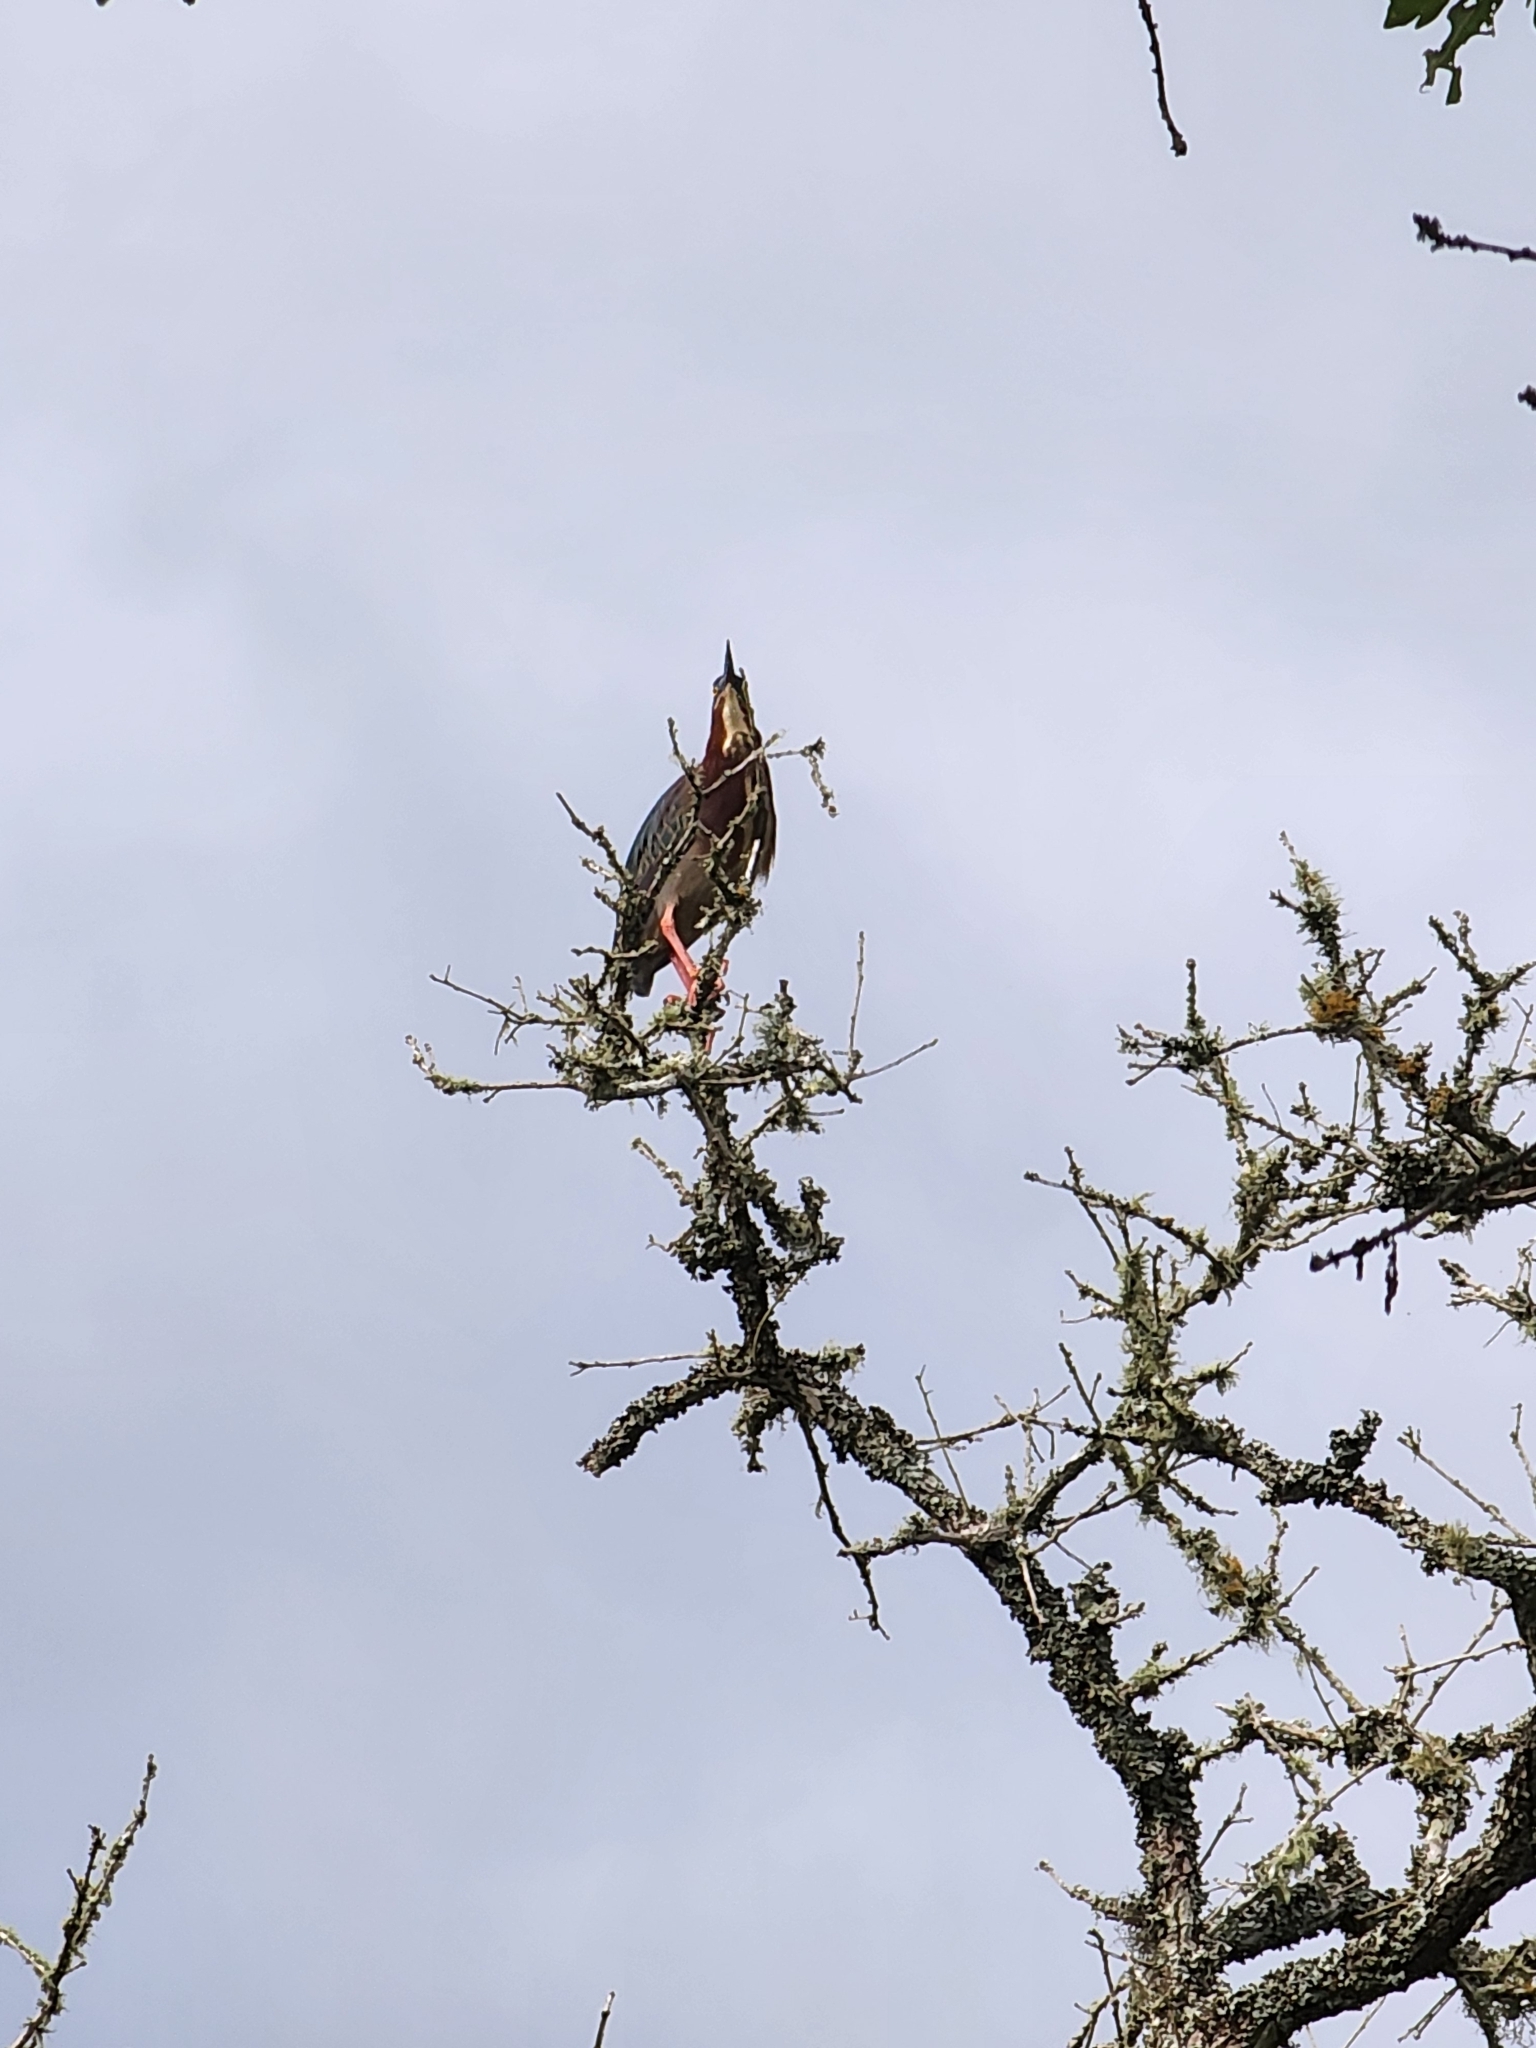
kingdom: Animalia
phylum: Chordata
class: Aves
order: Pelecaniformes
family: Ardeidae
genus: Butorides
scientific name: Butorides virescens
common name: Green heron
